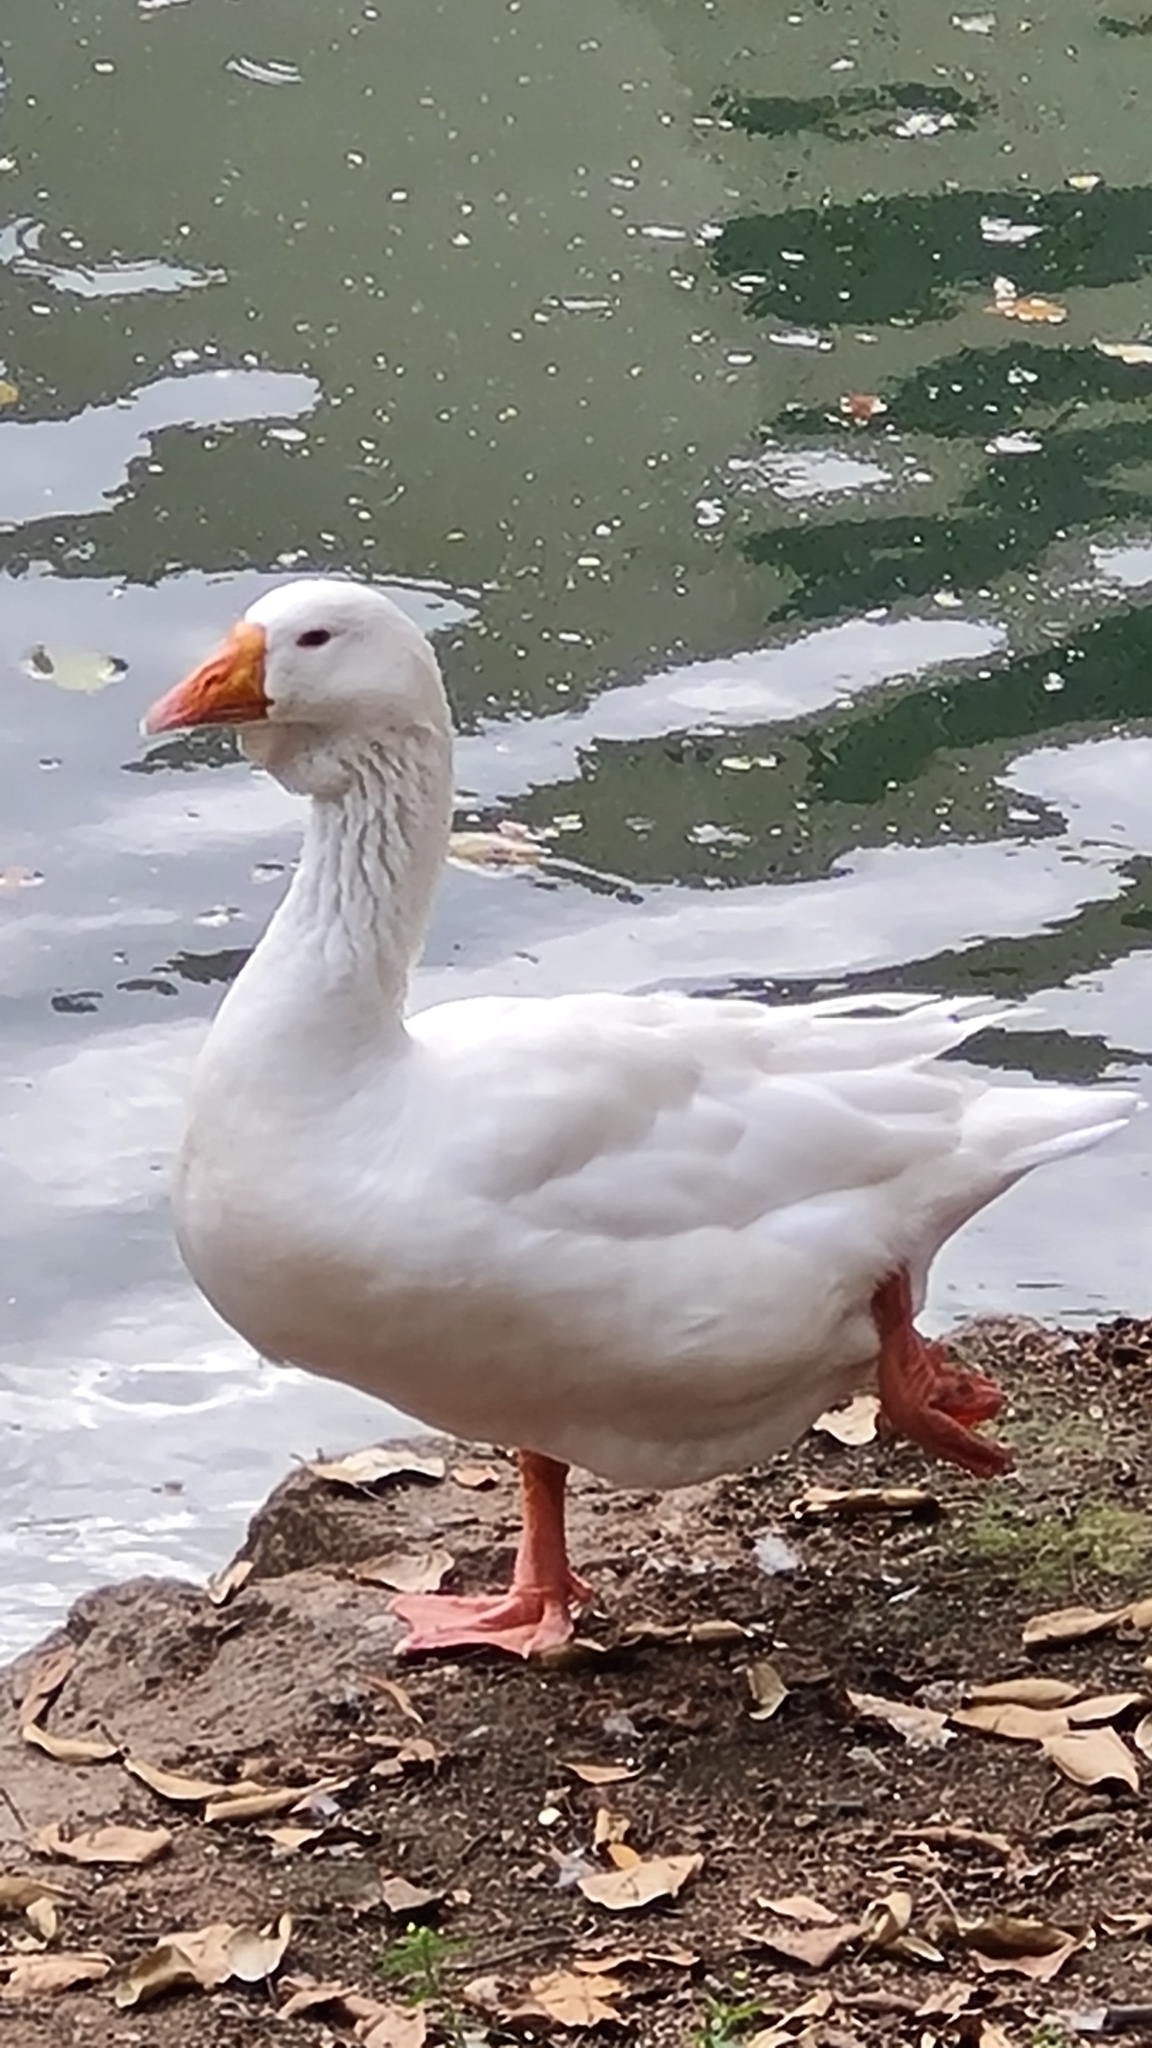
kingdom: Animalia
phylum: Chordata
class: Aves
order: Anseriformes
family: Anatidae
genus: Anser
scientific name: Anser anser
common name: Greylag goose
